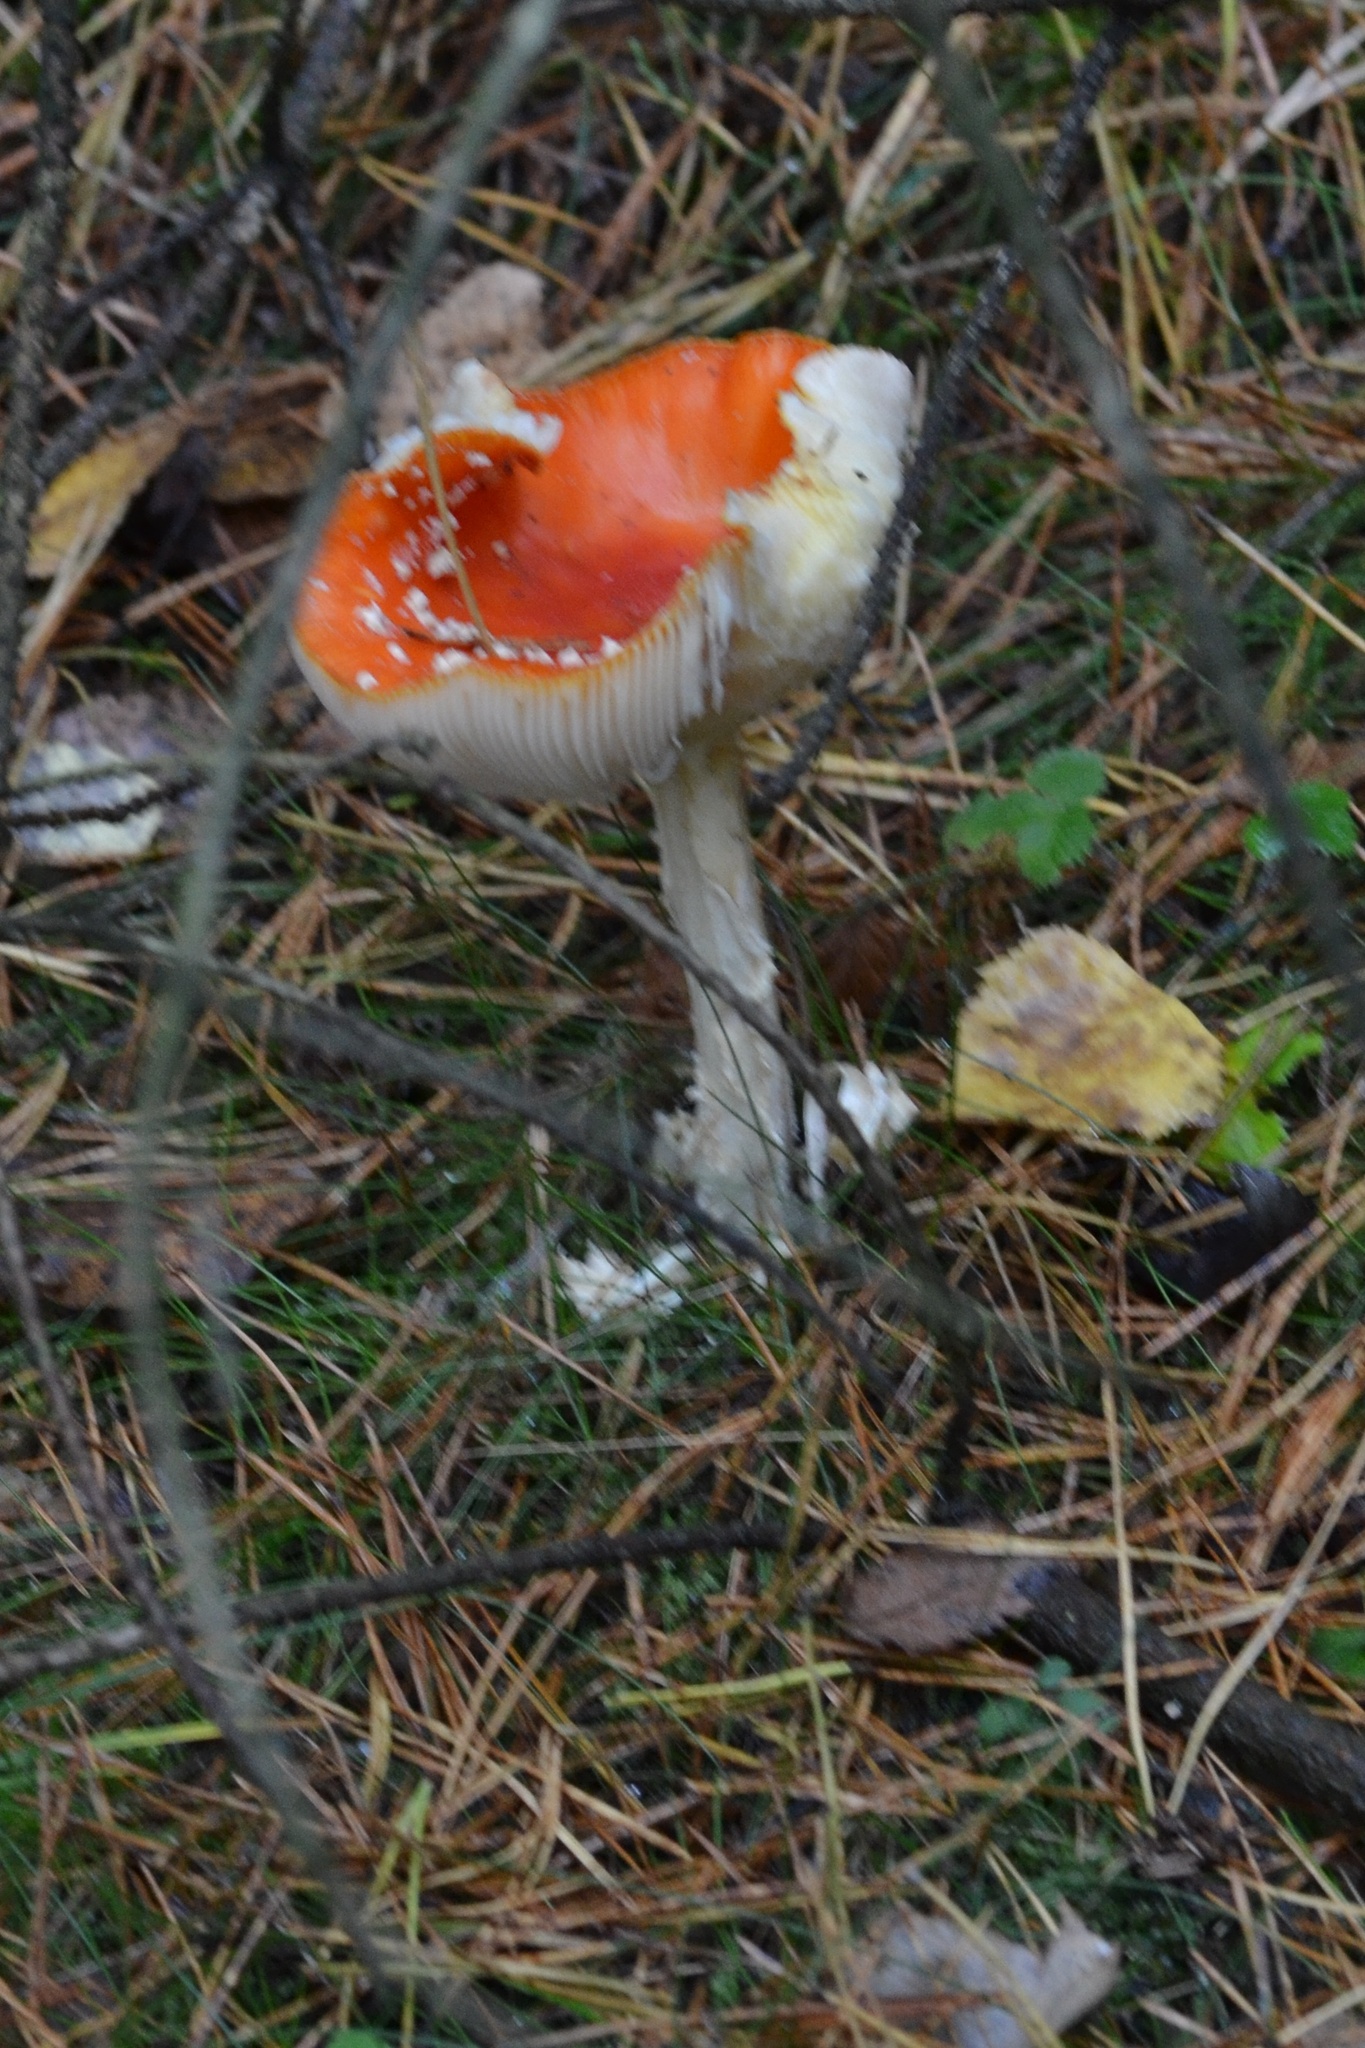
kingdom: Fungi
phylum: Basidiomycota
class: Agaricomycetes
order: Agaricales
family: Amanitaceae
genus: Amanita
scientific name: Amanita muscaria
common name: Fly agaric
